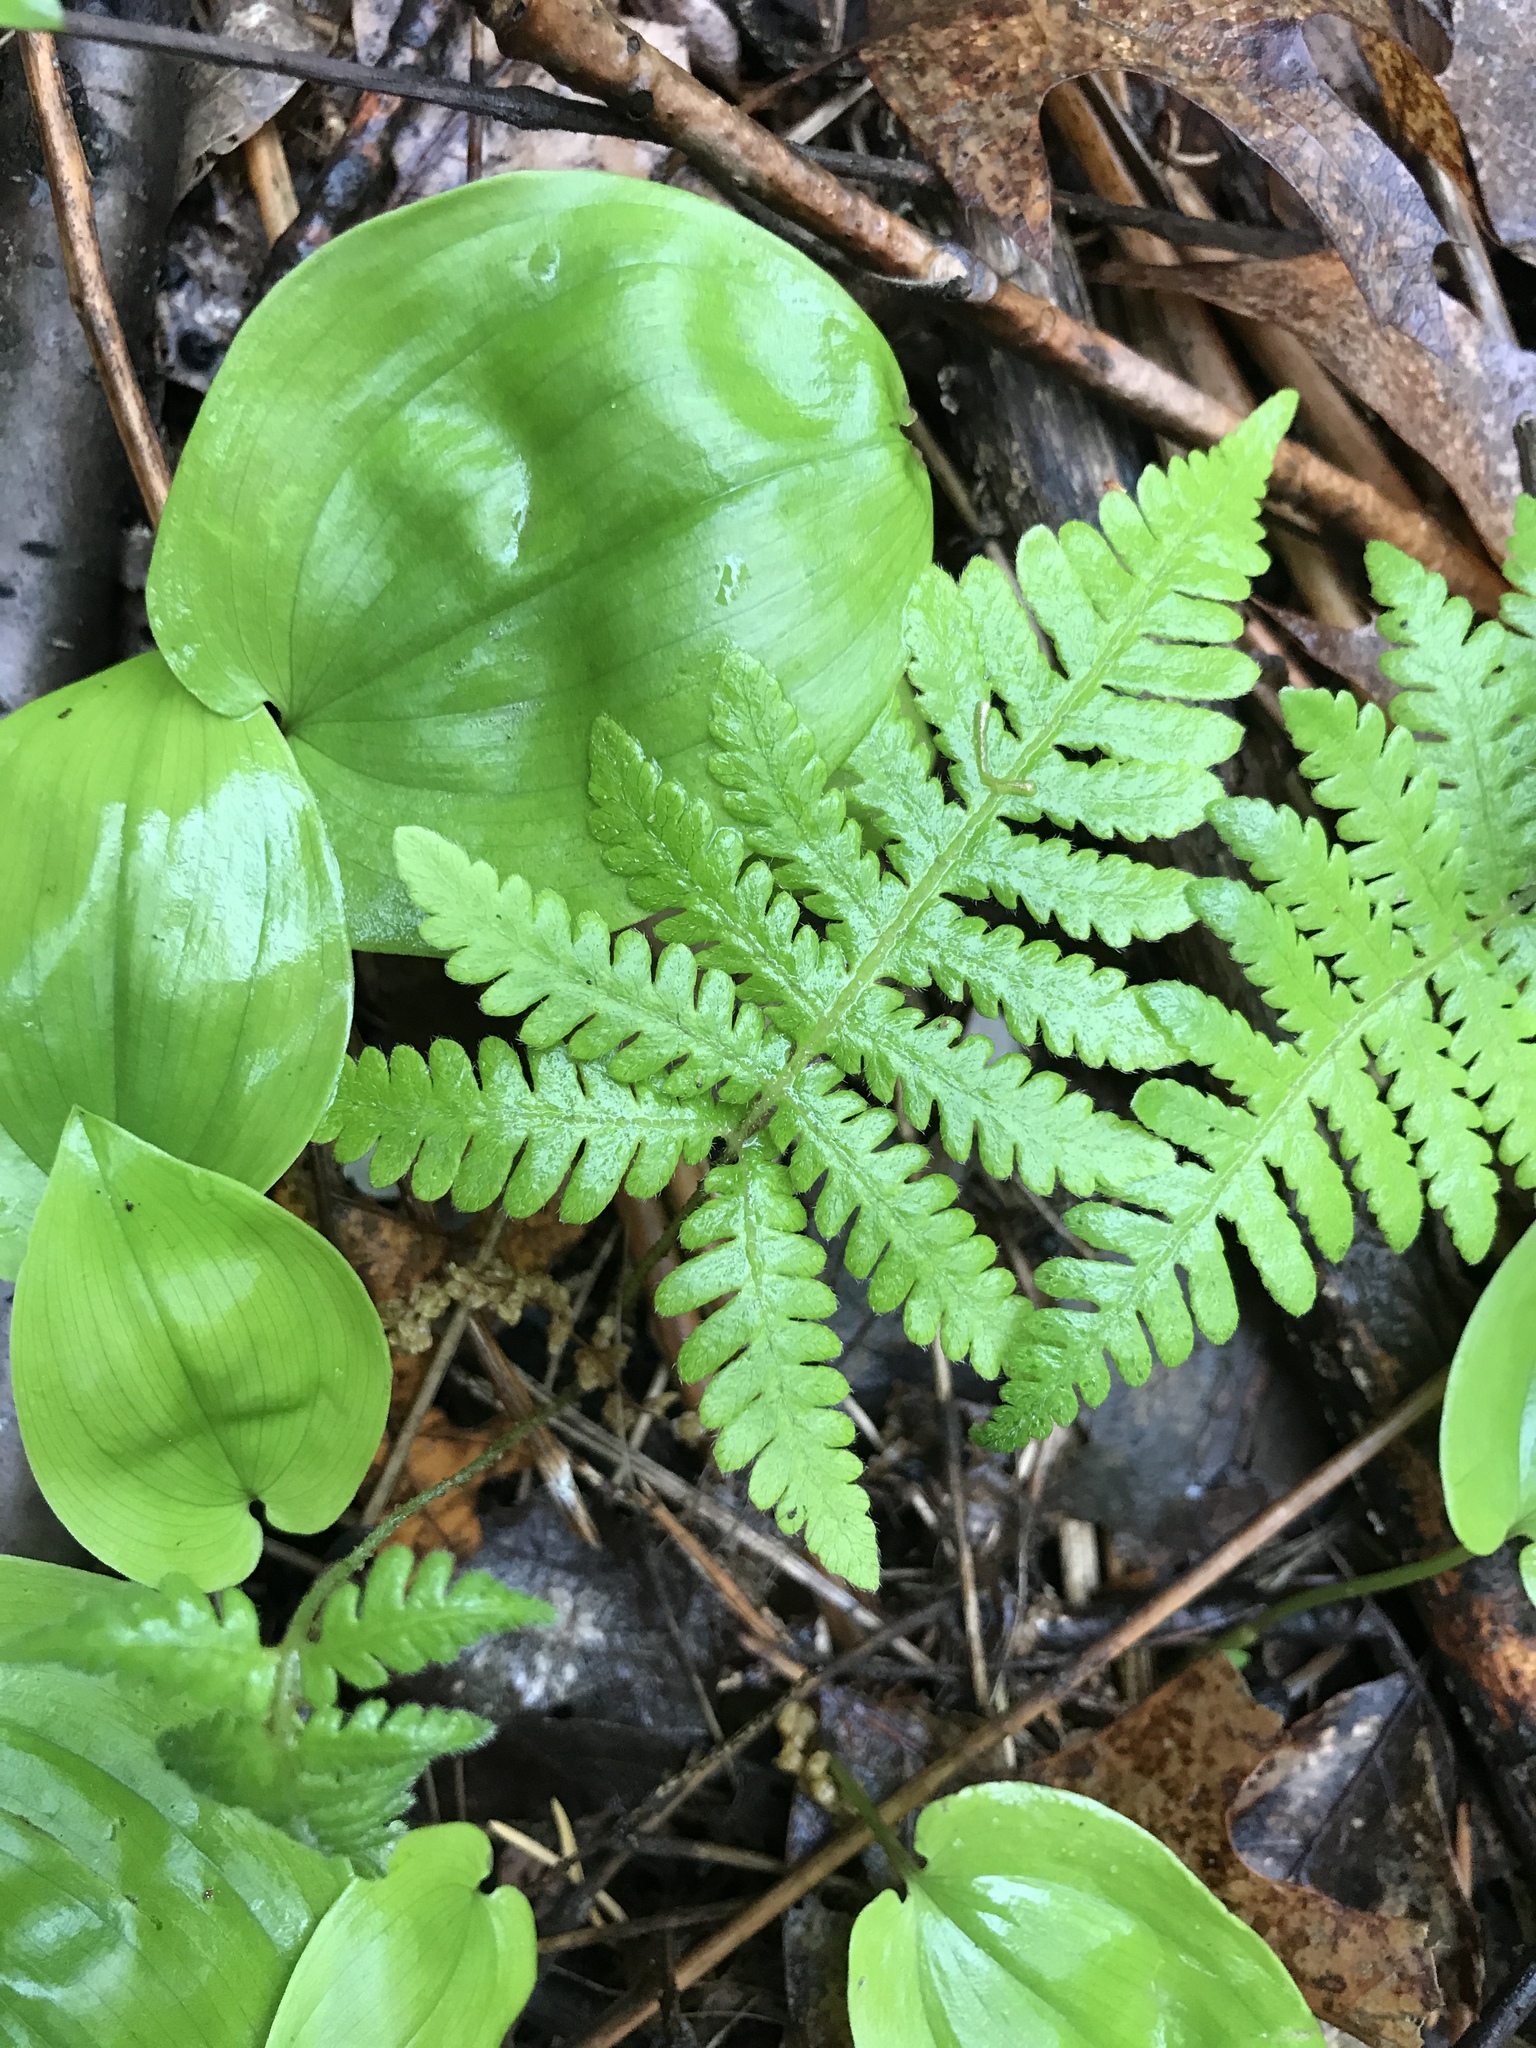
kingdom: Plantae
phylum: Tracheophyta
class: Polypodiopsida
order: Polypodiales
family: Thelypteridaceae
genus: Phegopteris
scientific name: Phegopteris connectilis
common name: Beech fern
